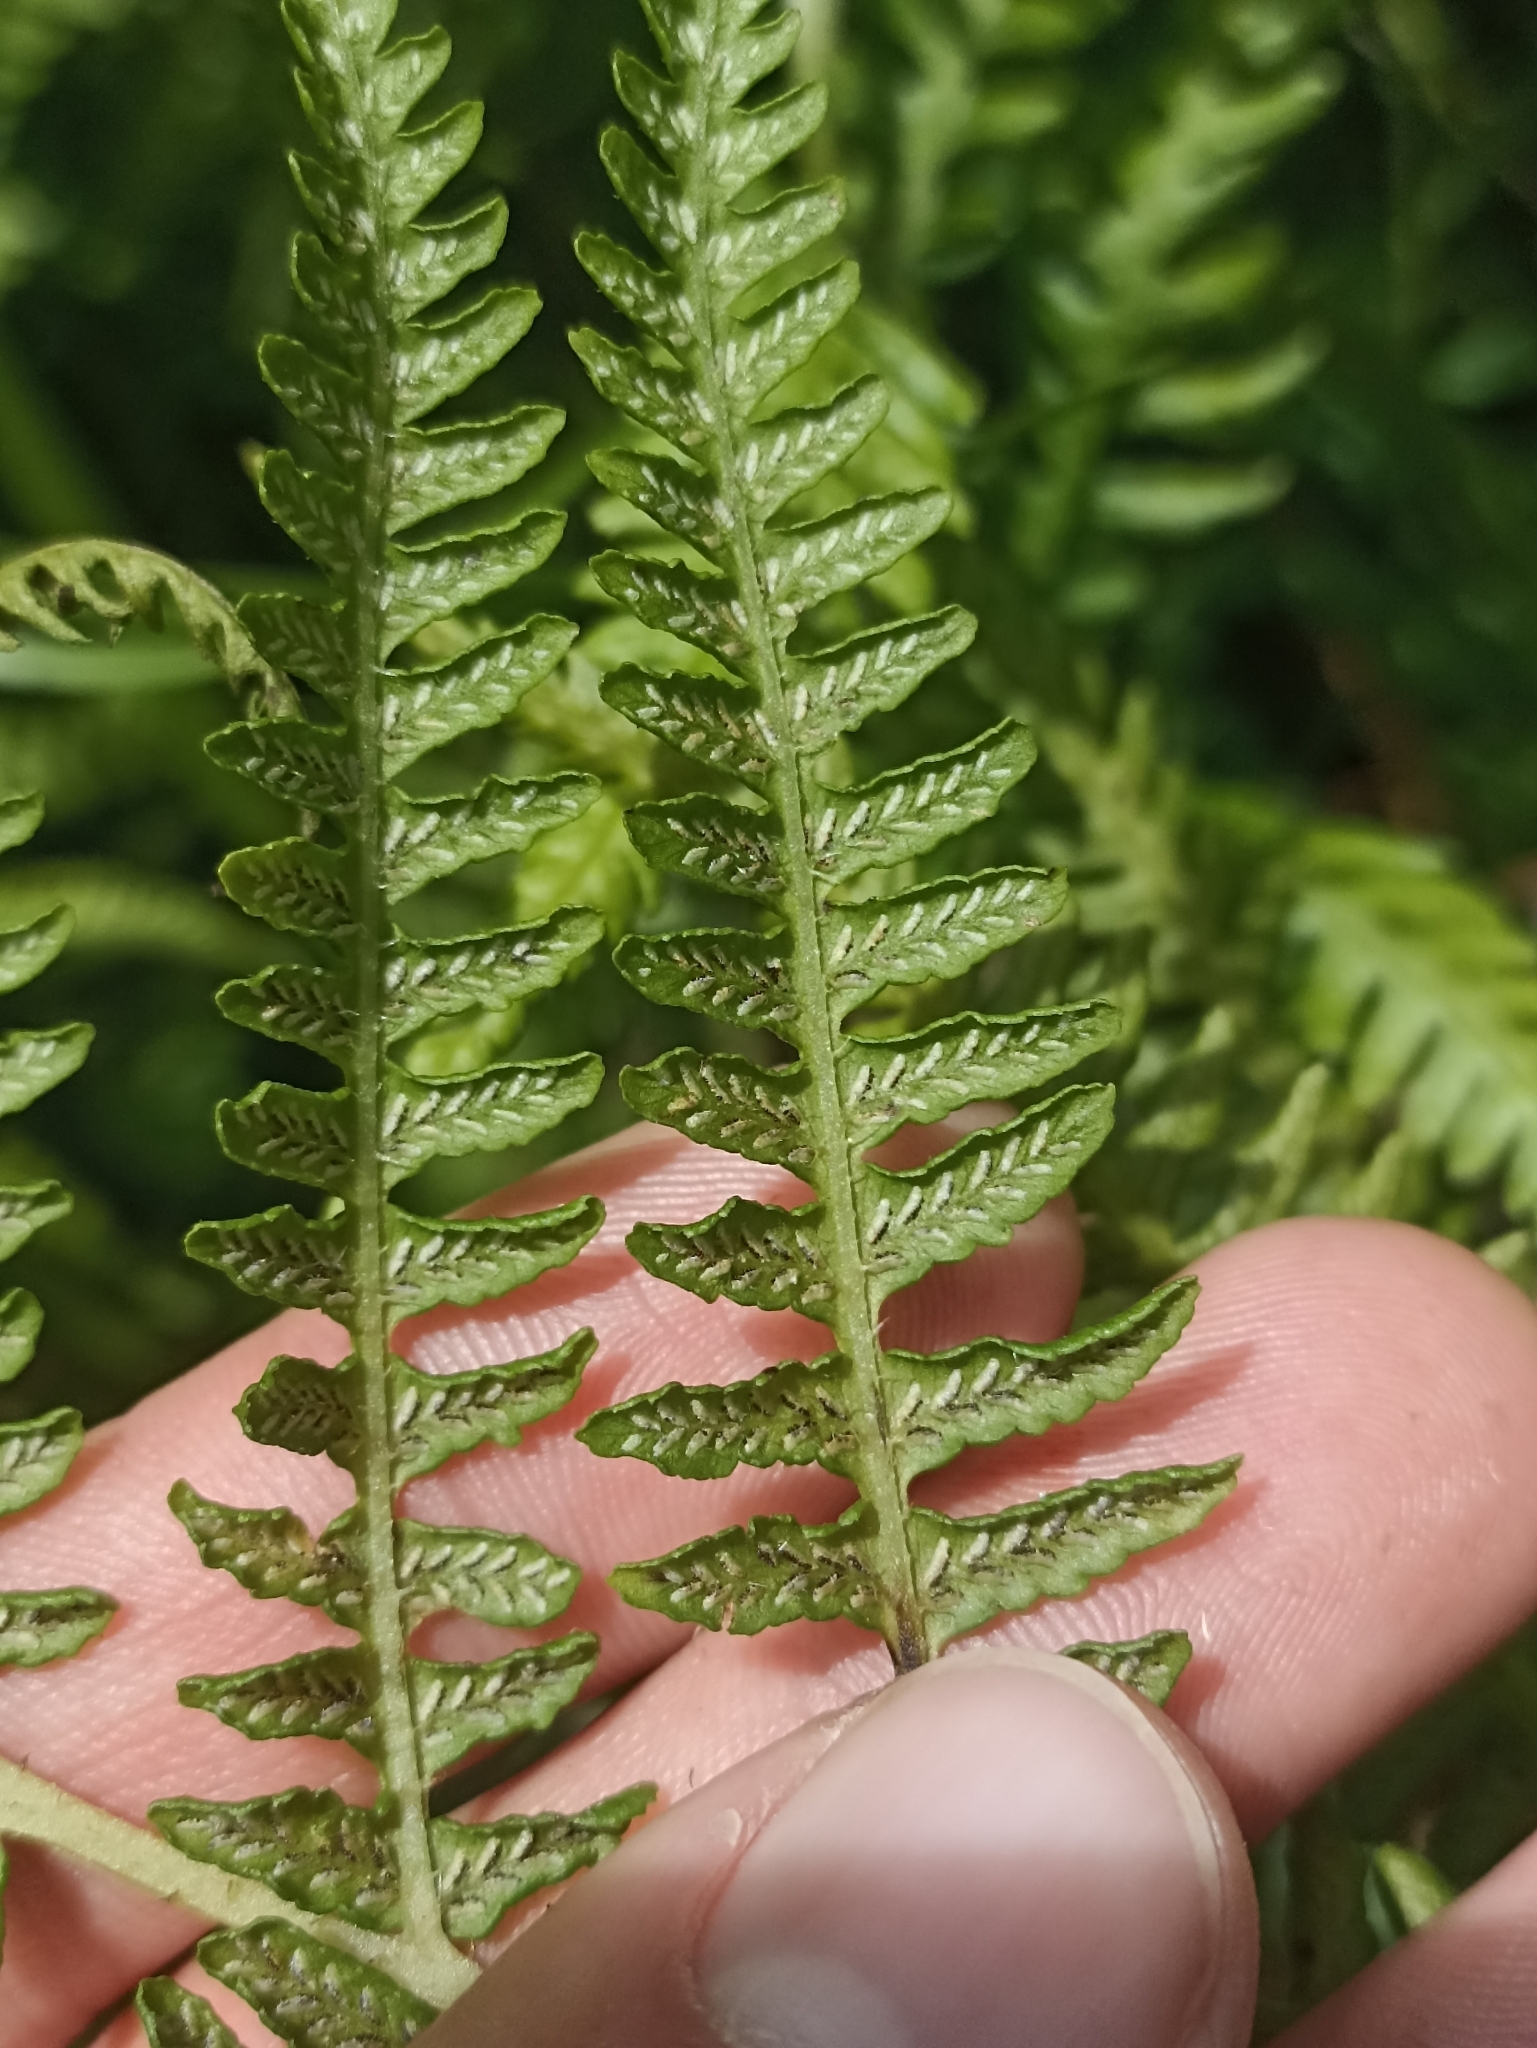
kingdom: Plantae
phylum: Tracheophyta
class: Polypodiopsida
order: Polypodiales
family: Athyriaceae
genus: Diplazium
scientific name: Diplazium congruum
